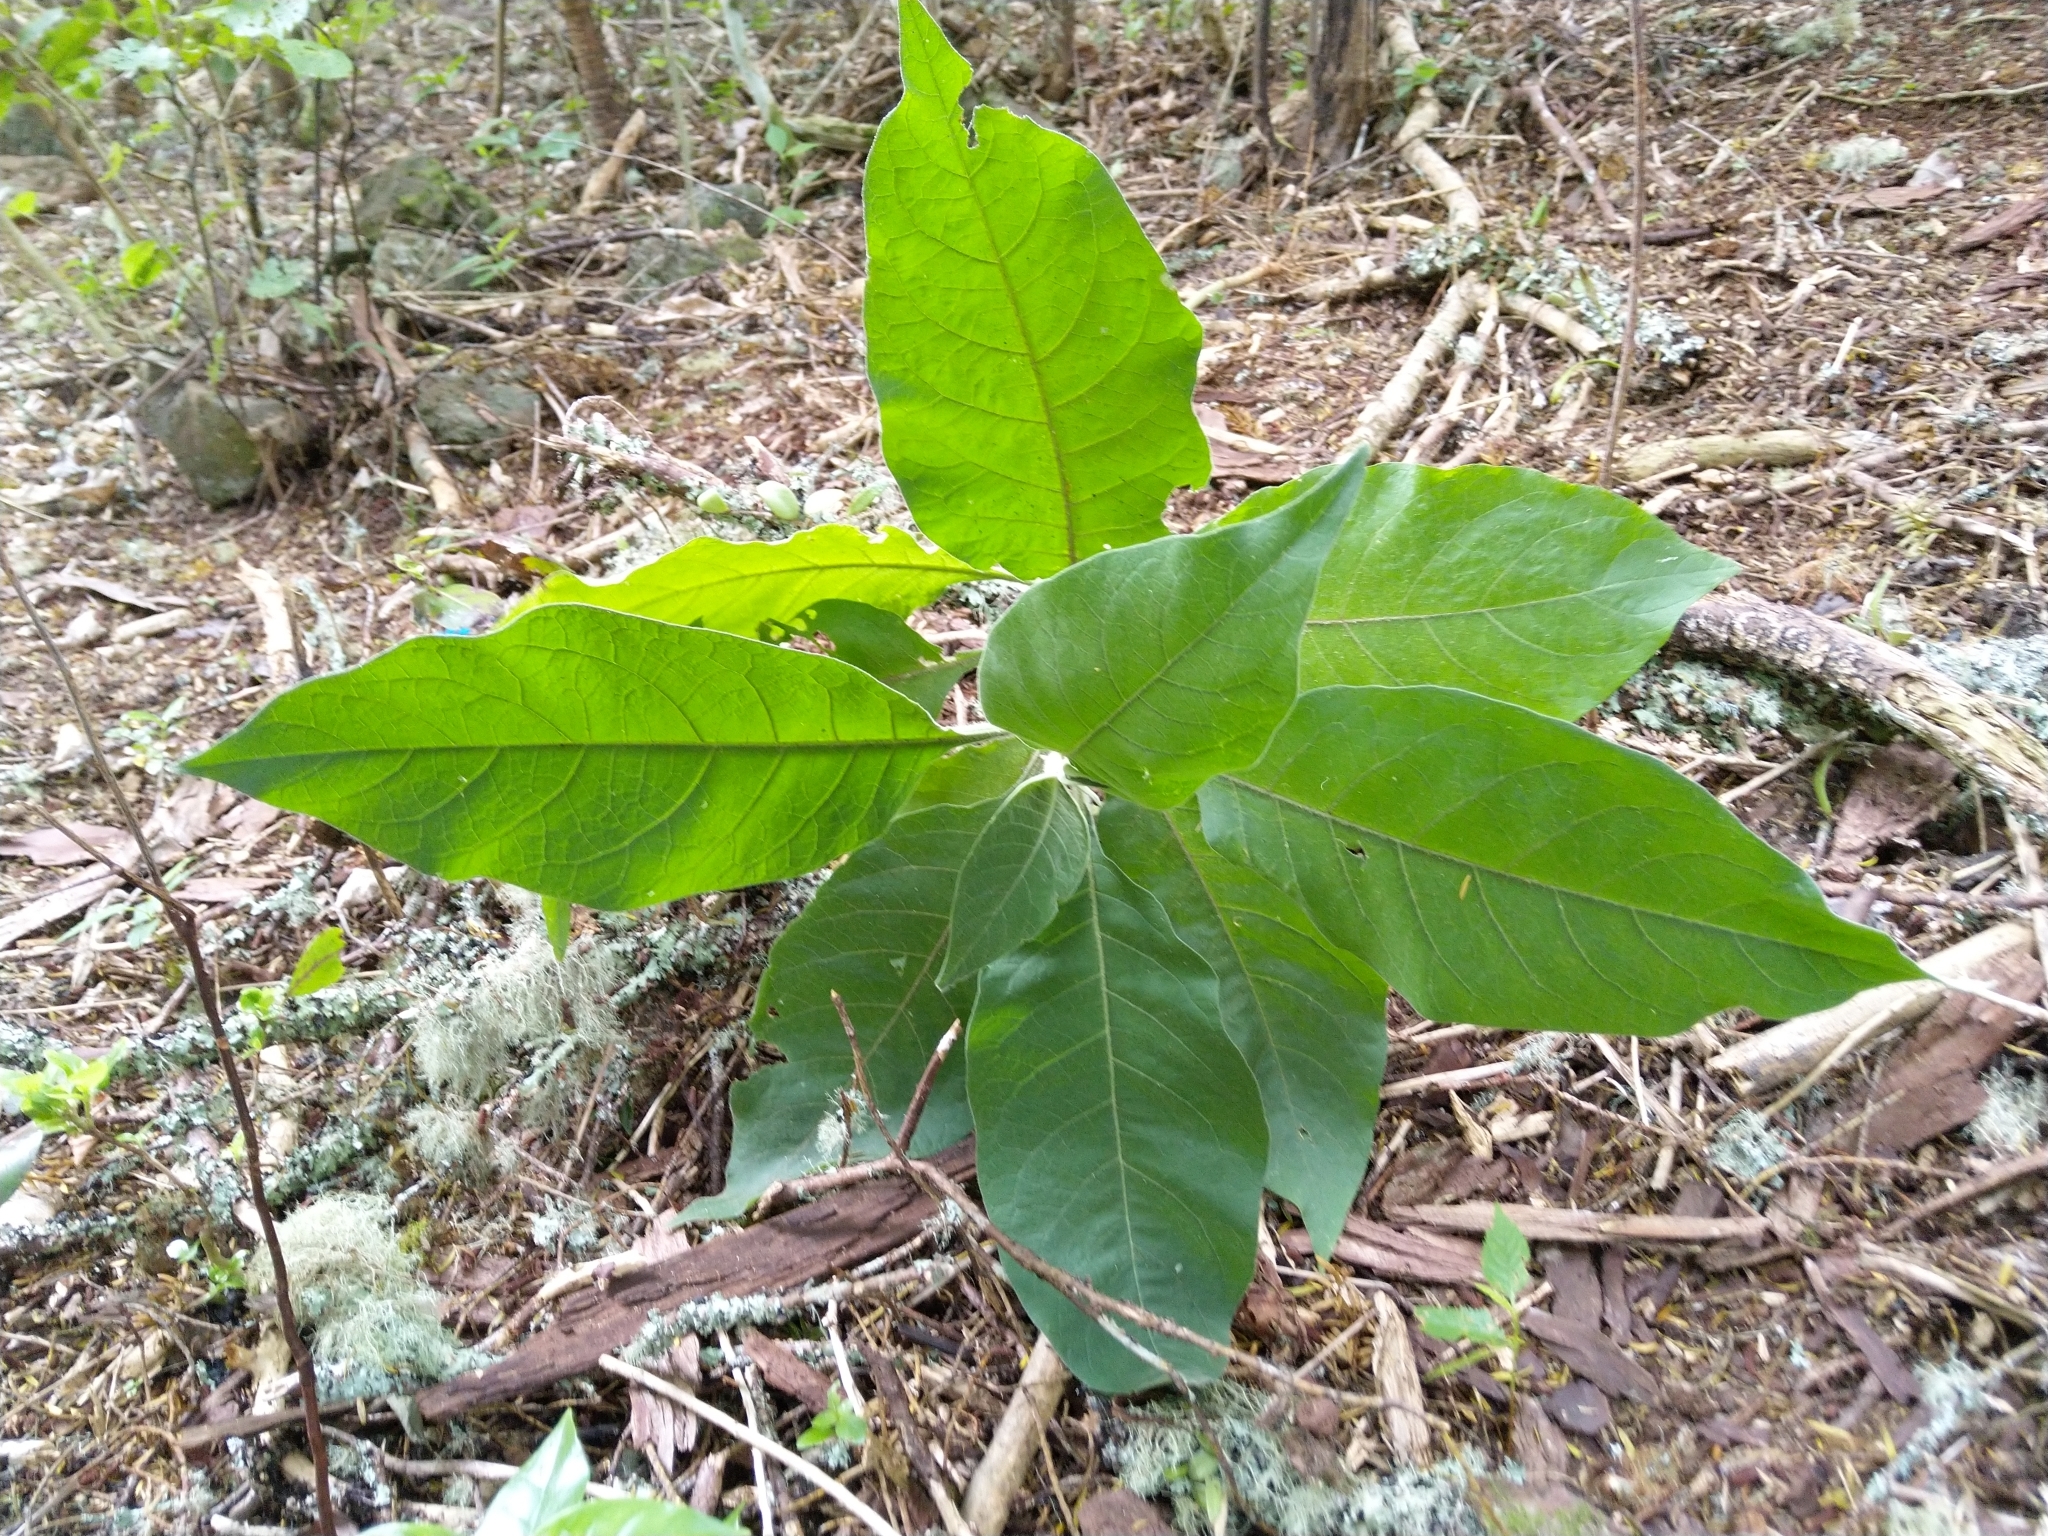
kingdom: Plantae
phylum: Tracheophyta
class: Magnoliopsida
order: Solanales
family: Solanaceae
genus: Solanum
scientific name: Solanum mauritianum
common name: Earleaf nightshade
